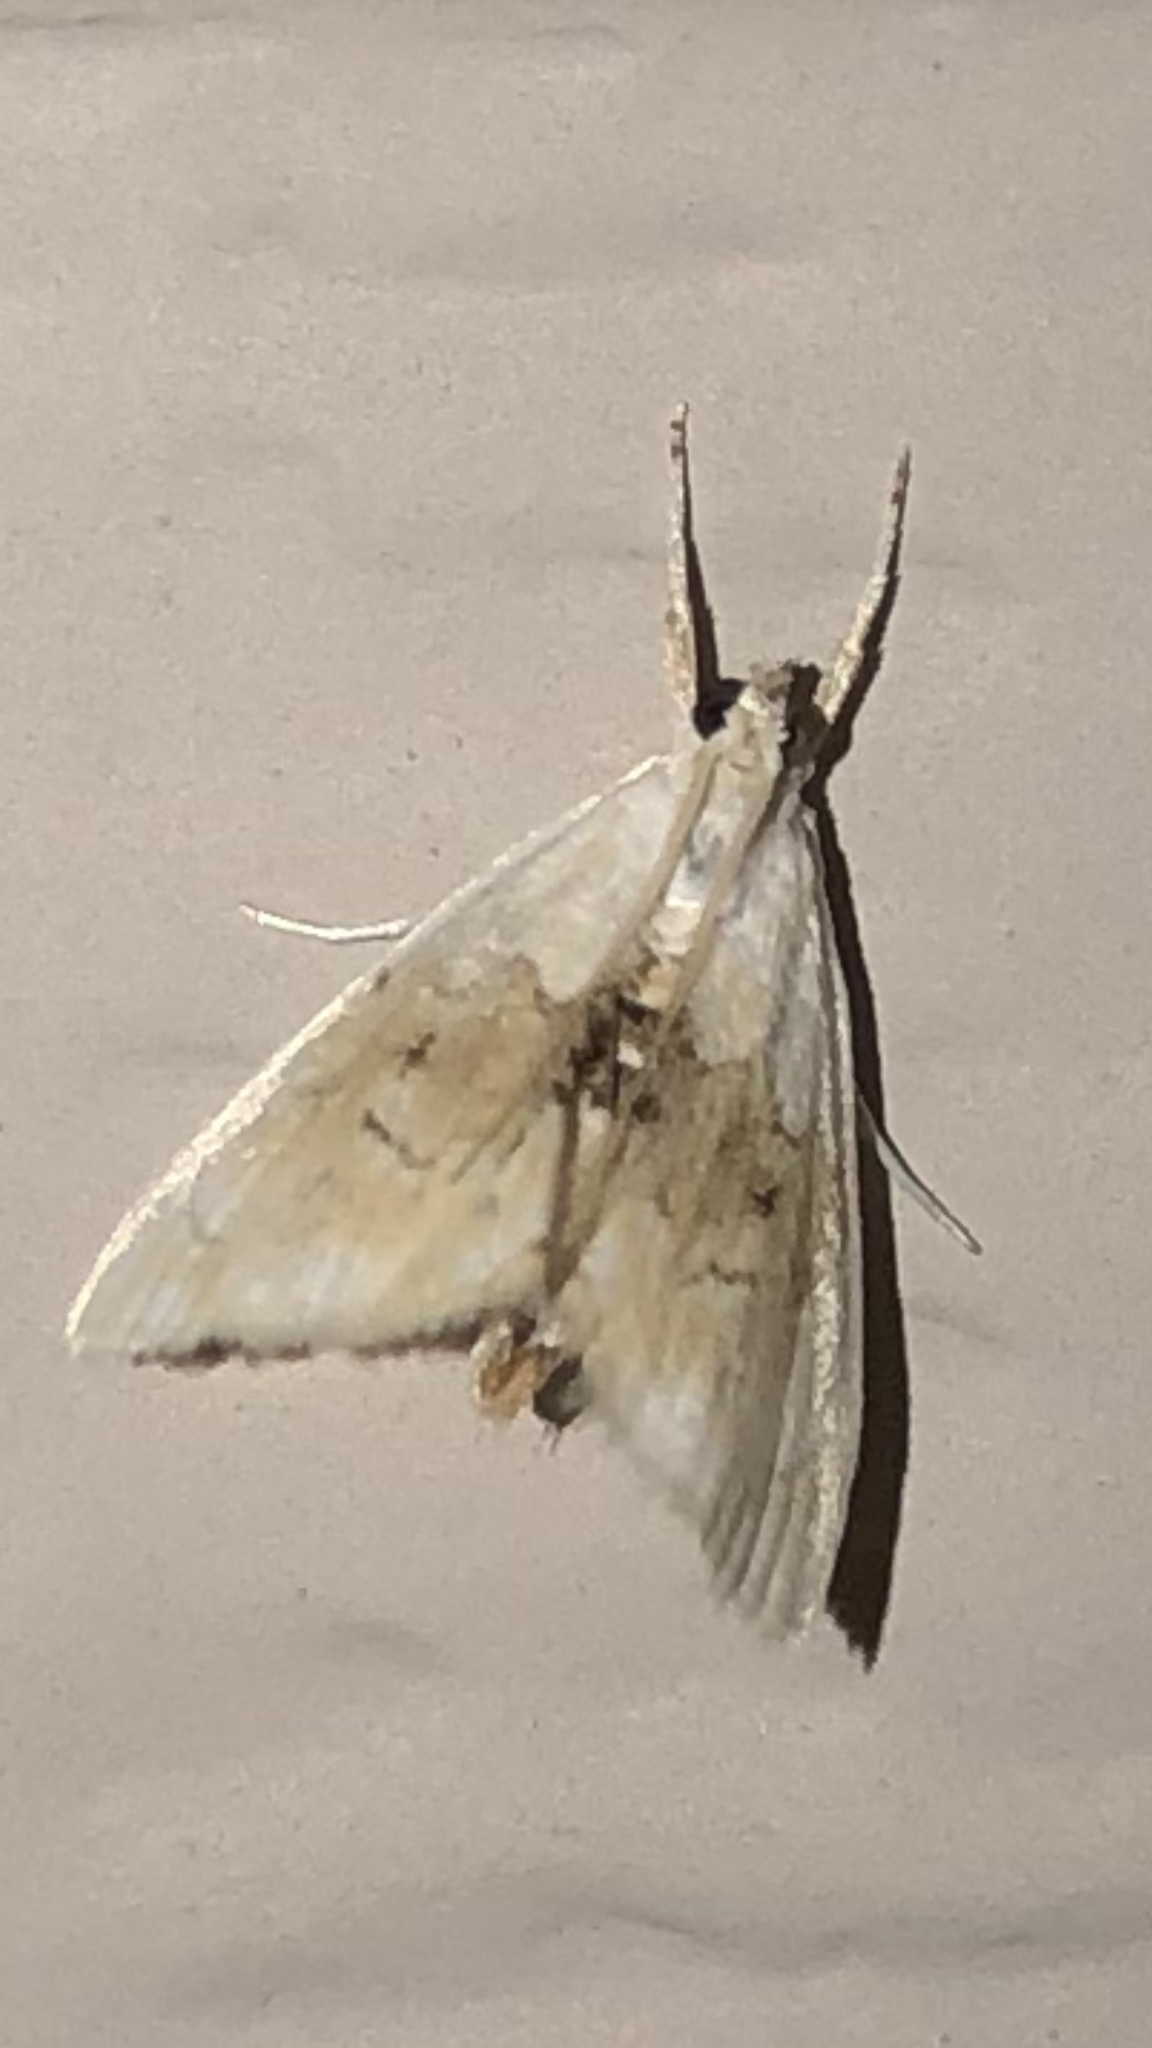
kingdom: Animalia
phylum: Arthropoda
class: Insecta
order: Lepidoptera
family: Crambidae
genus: Lipocosma
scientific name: Lipocosma sicalis
